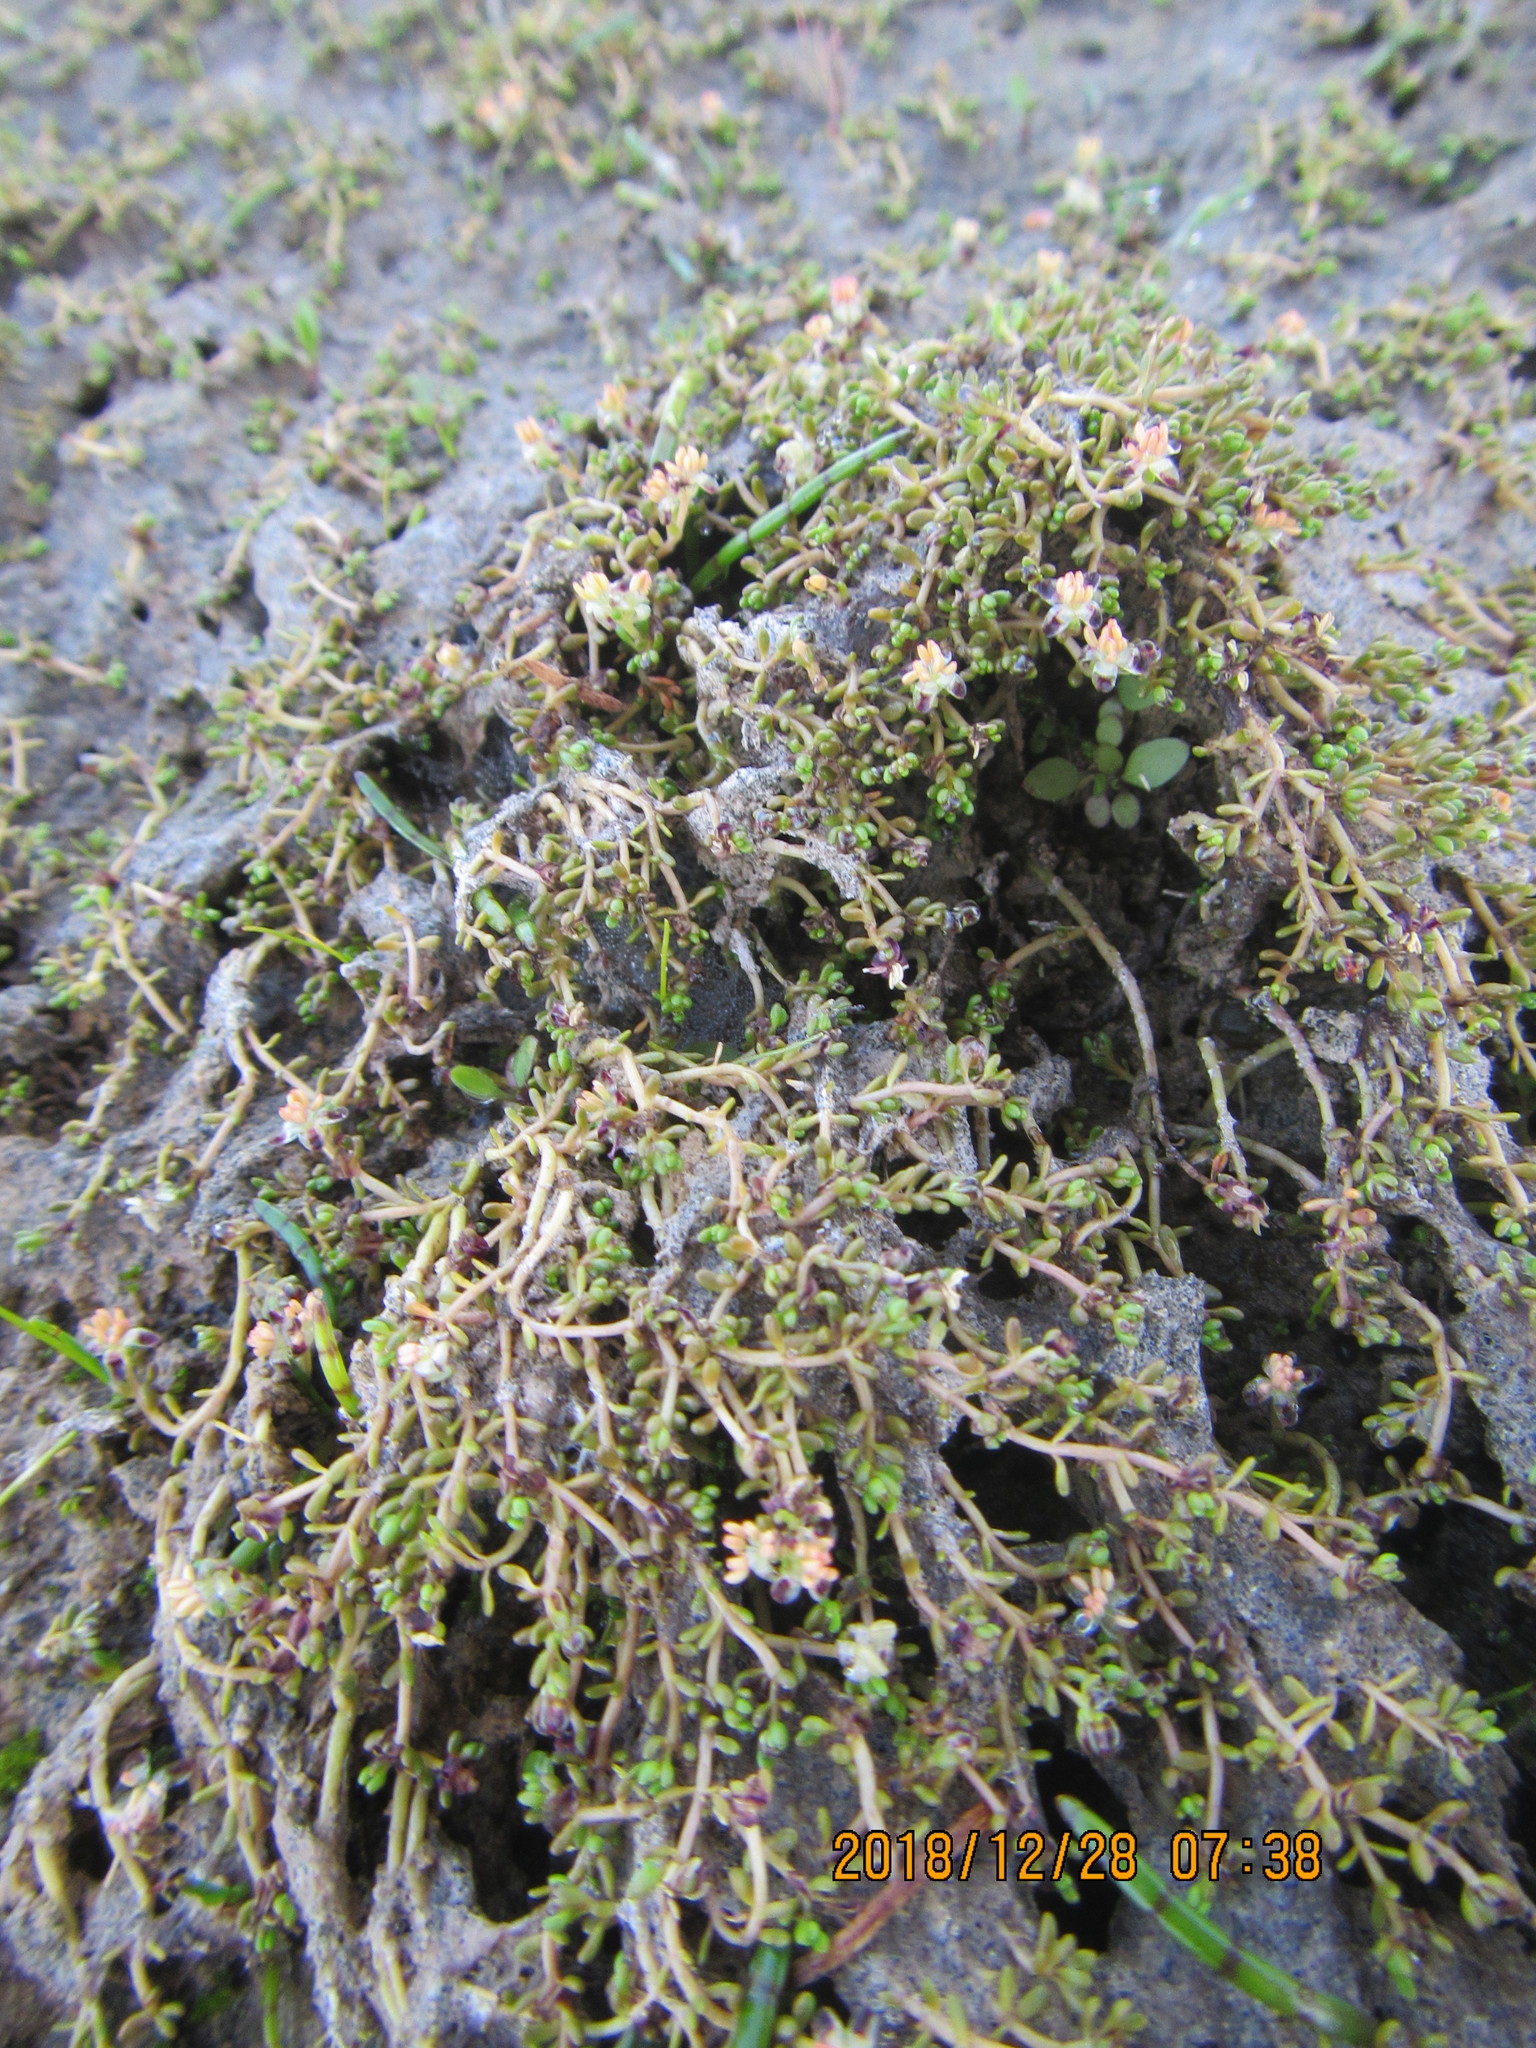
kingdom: Plantae
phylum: Tracheophyta
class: Magnoliopsida
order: Saxifragales
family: Haloragaceae
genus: Myriophyllum
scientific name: Myriophyllum votschii
